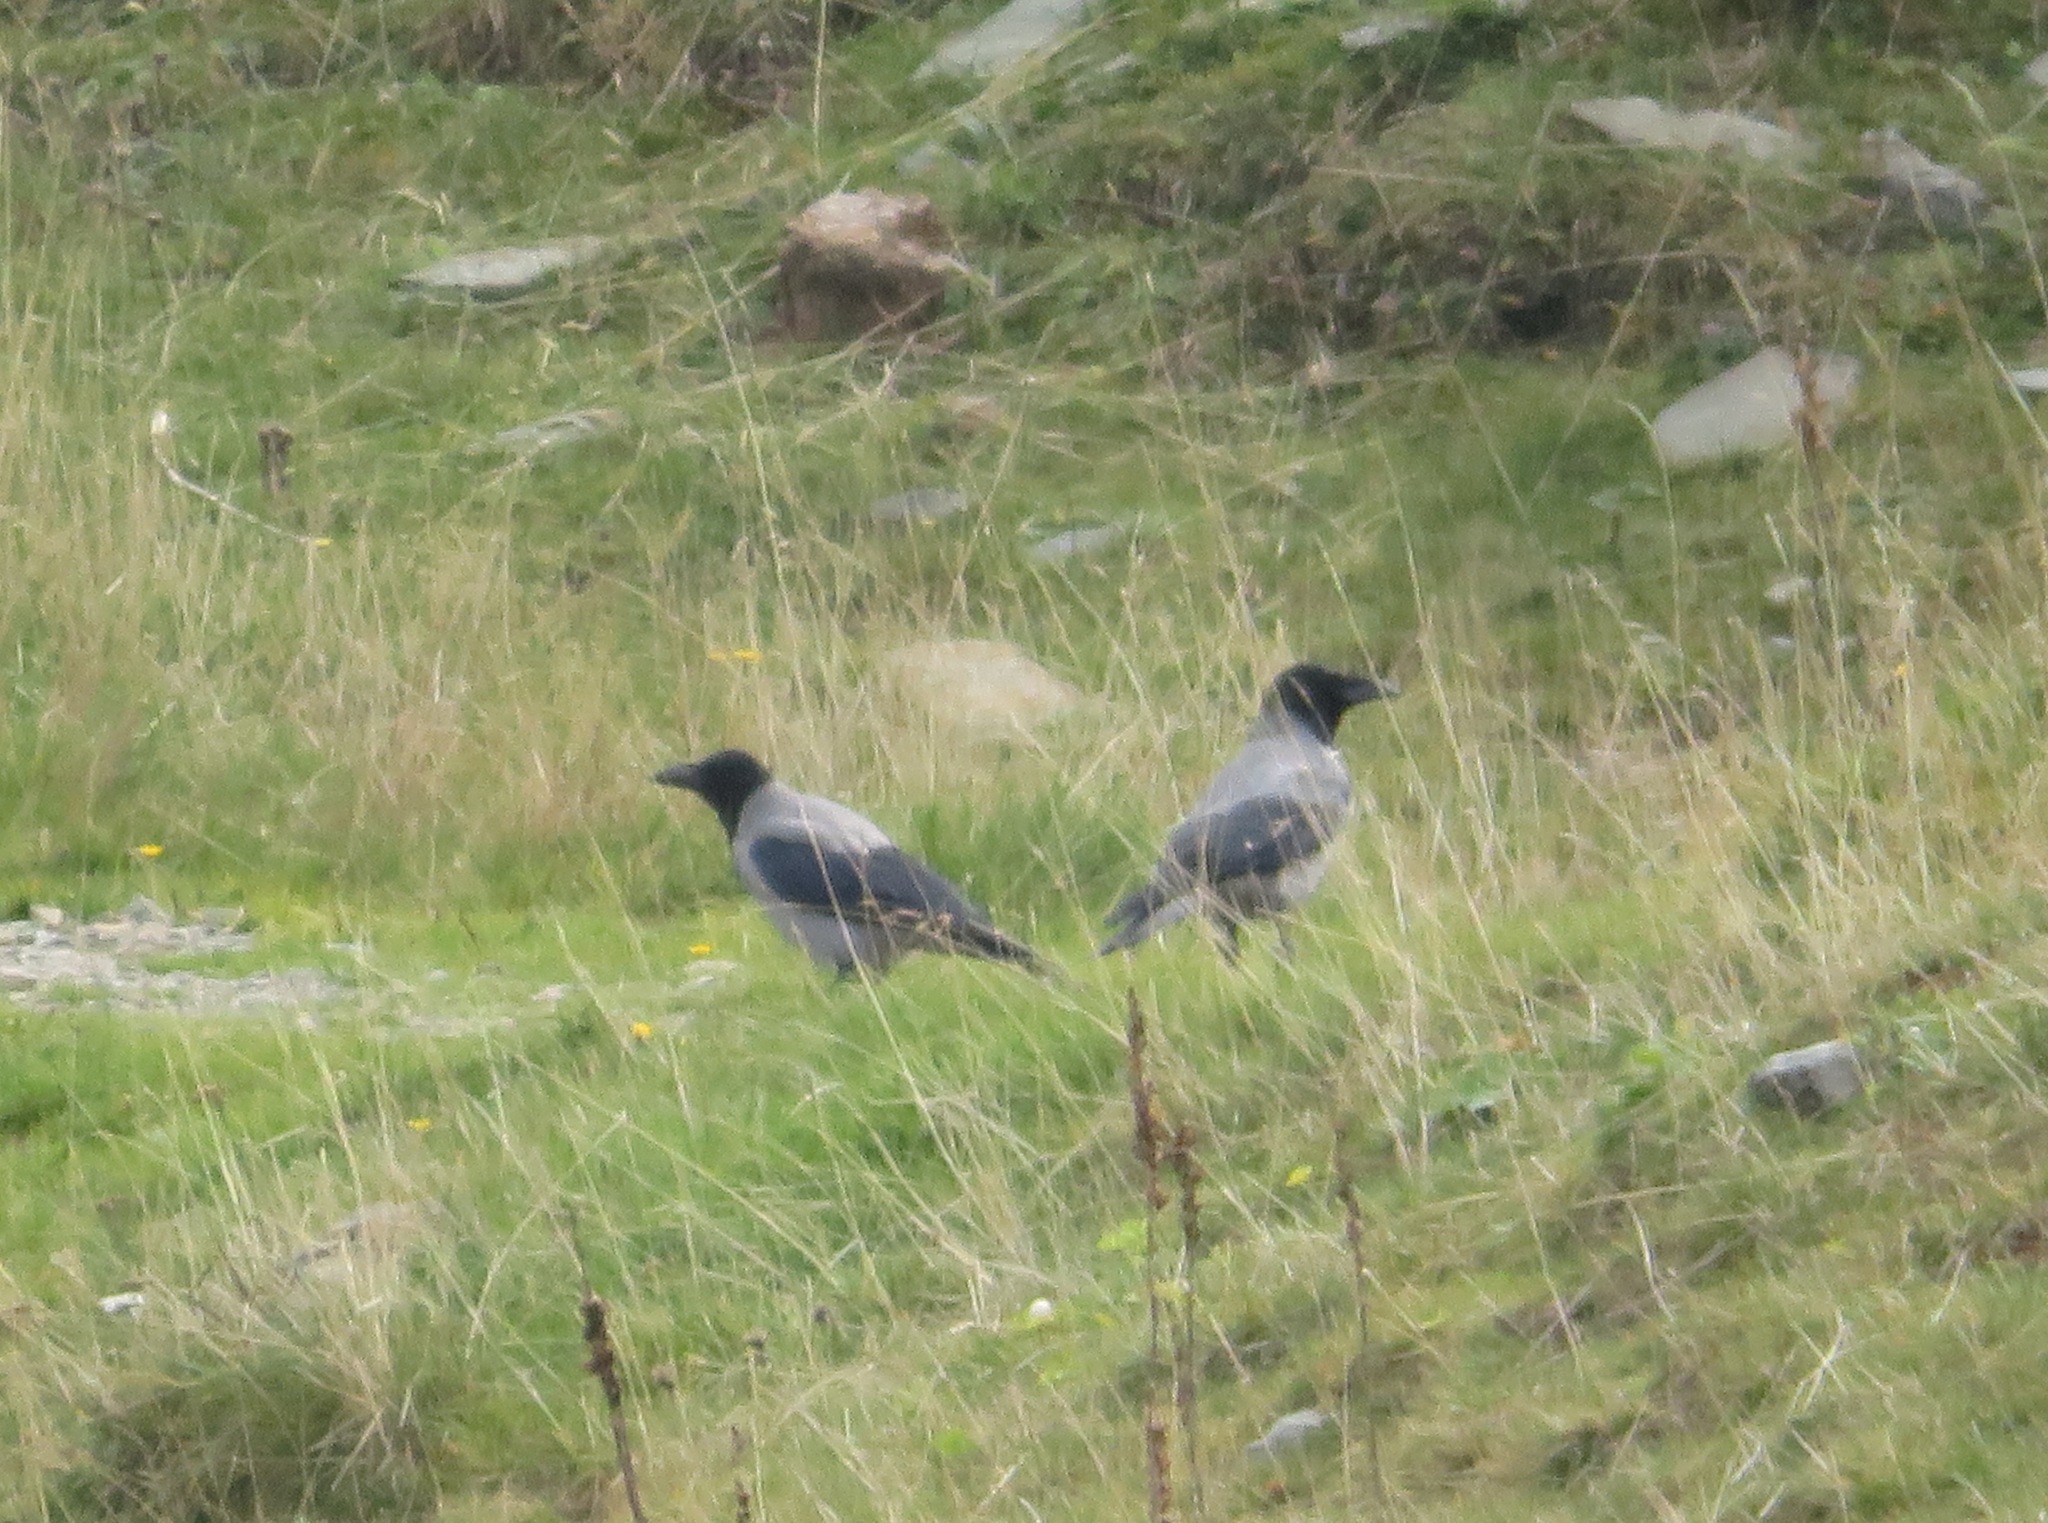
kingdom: Animalia
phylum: Chordata
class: Aves
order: Passeriformes
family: Corvidae
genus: Corvus
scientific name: Corvus cornix
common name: Hooded crow
